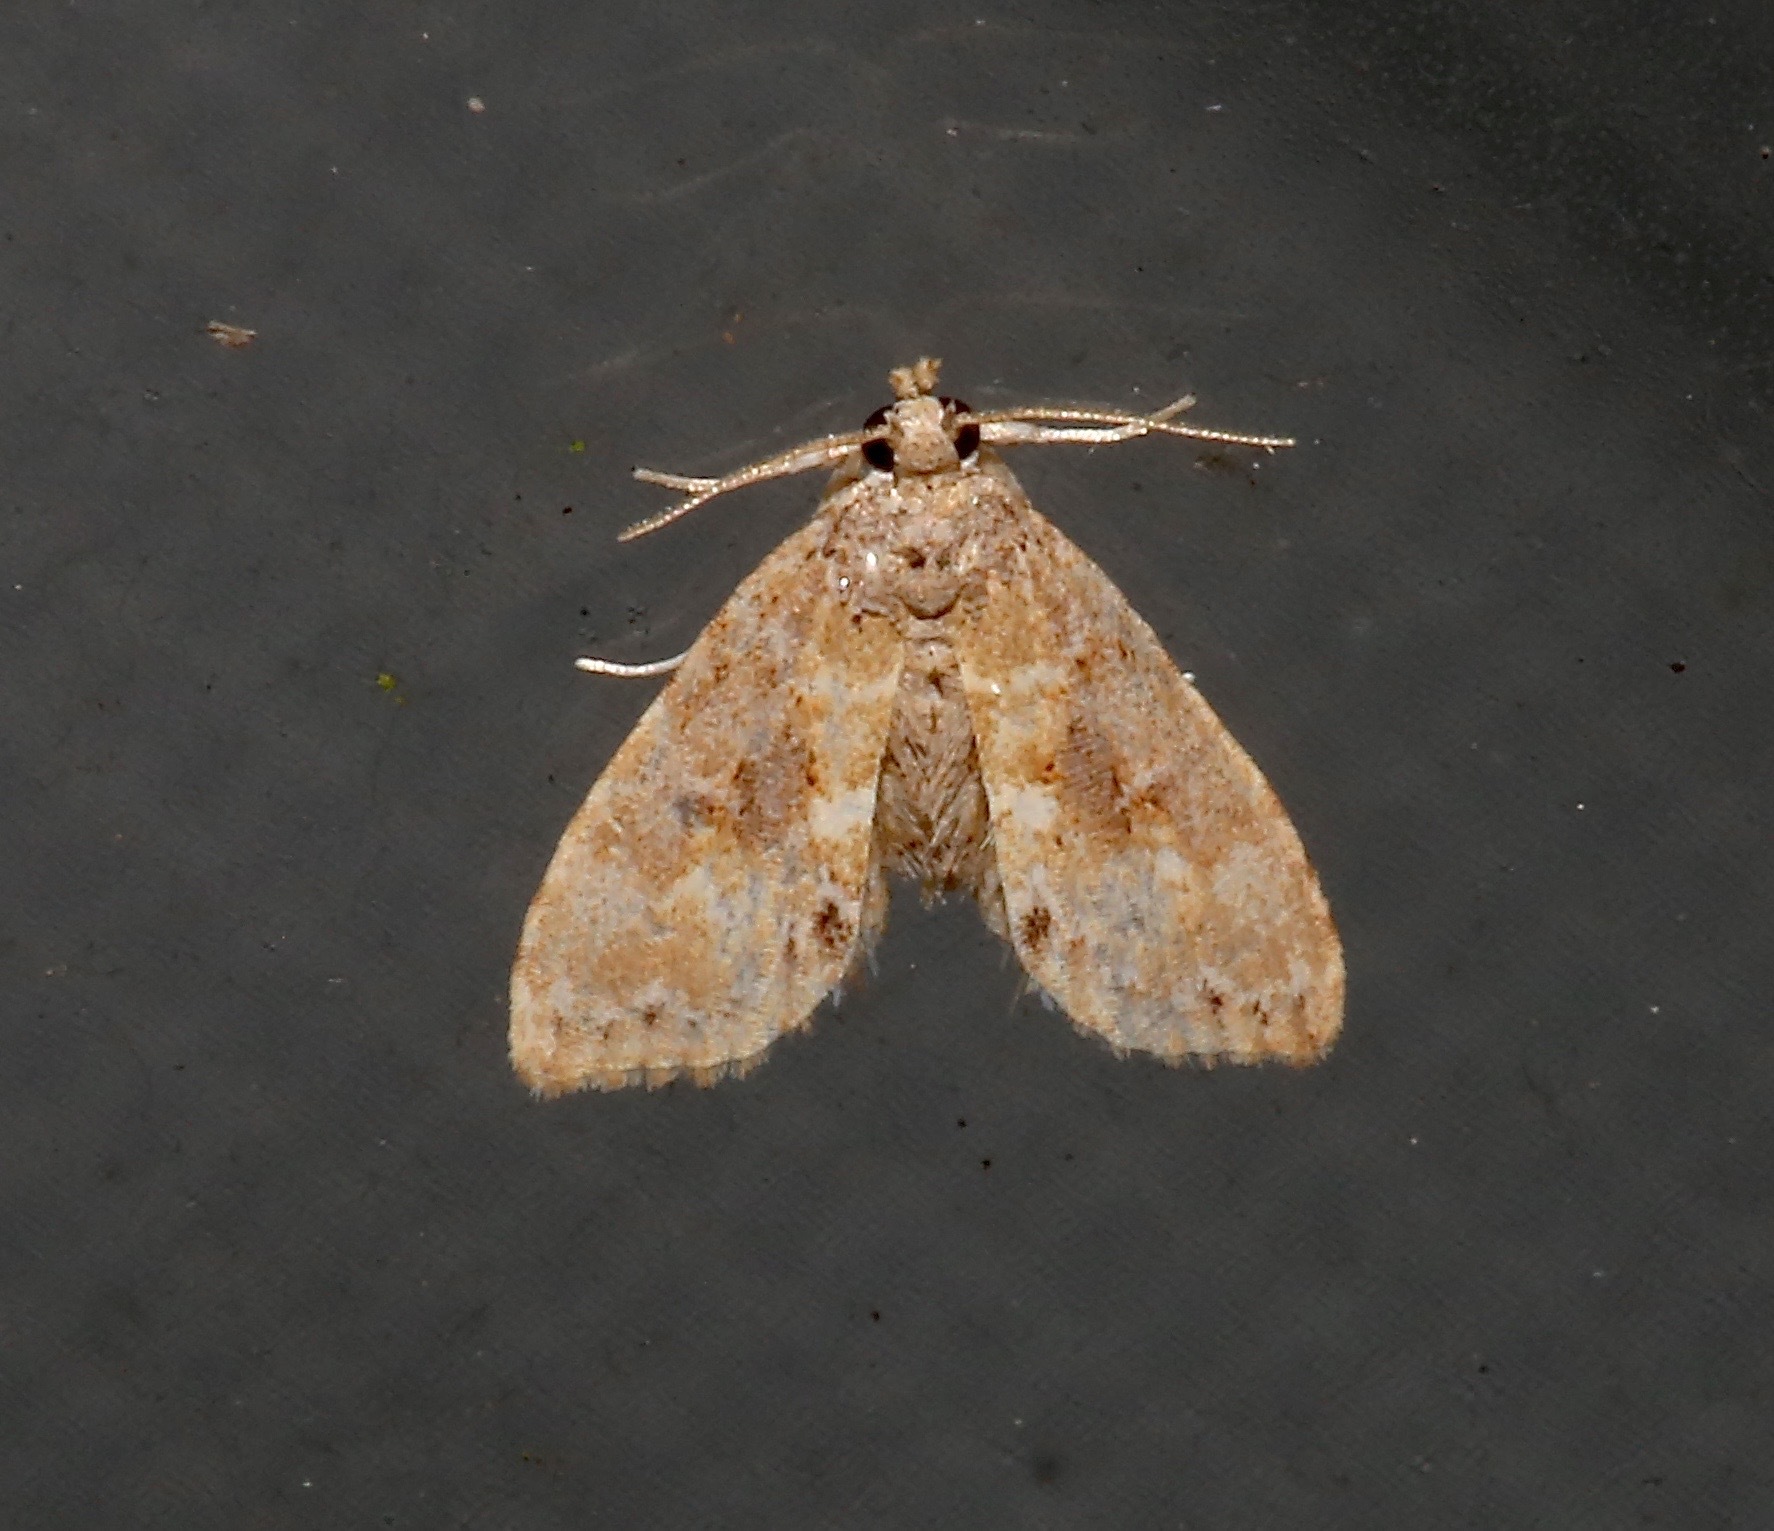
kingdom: Animalia
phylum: Arthropoda
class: Insecta
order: Lepidoptera
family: Erebidae
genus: Sigela
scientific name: Sigela sordes
